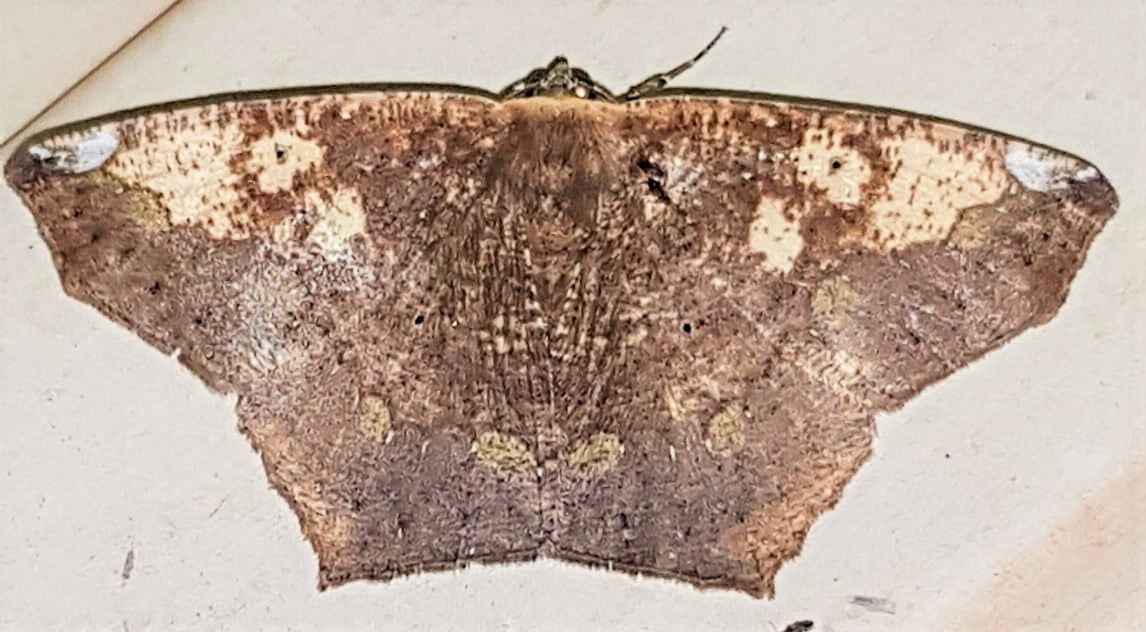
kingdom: Animalia
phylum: Arthropoda
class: Insecta
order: Lepidoptera
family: Geometridae
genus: Paragonia
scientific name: Paragonia cruraria
